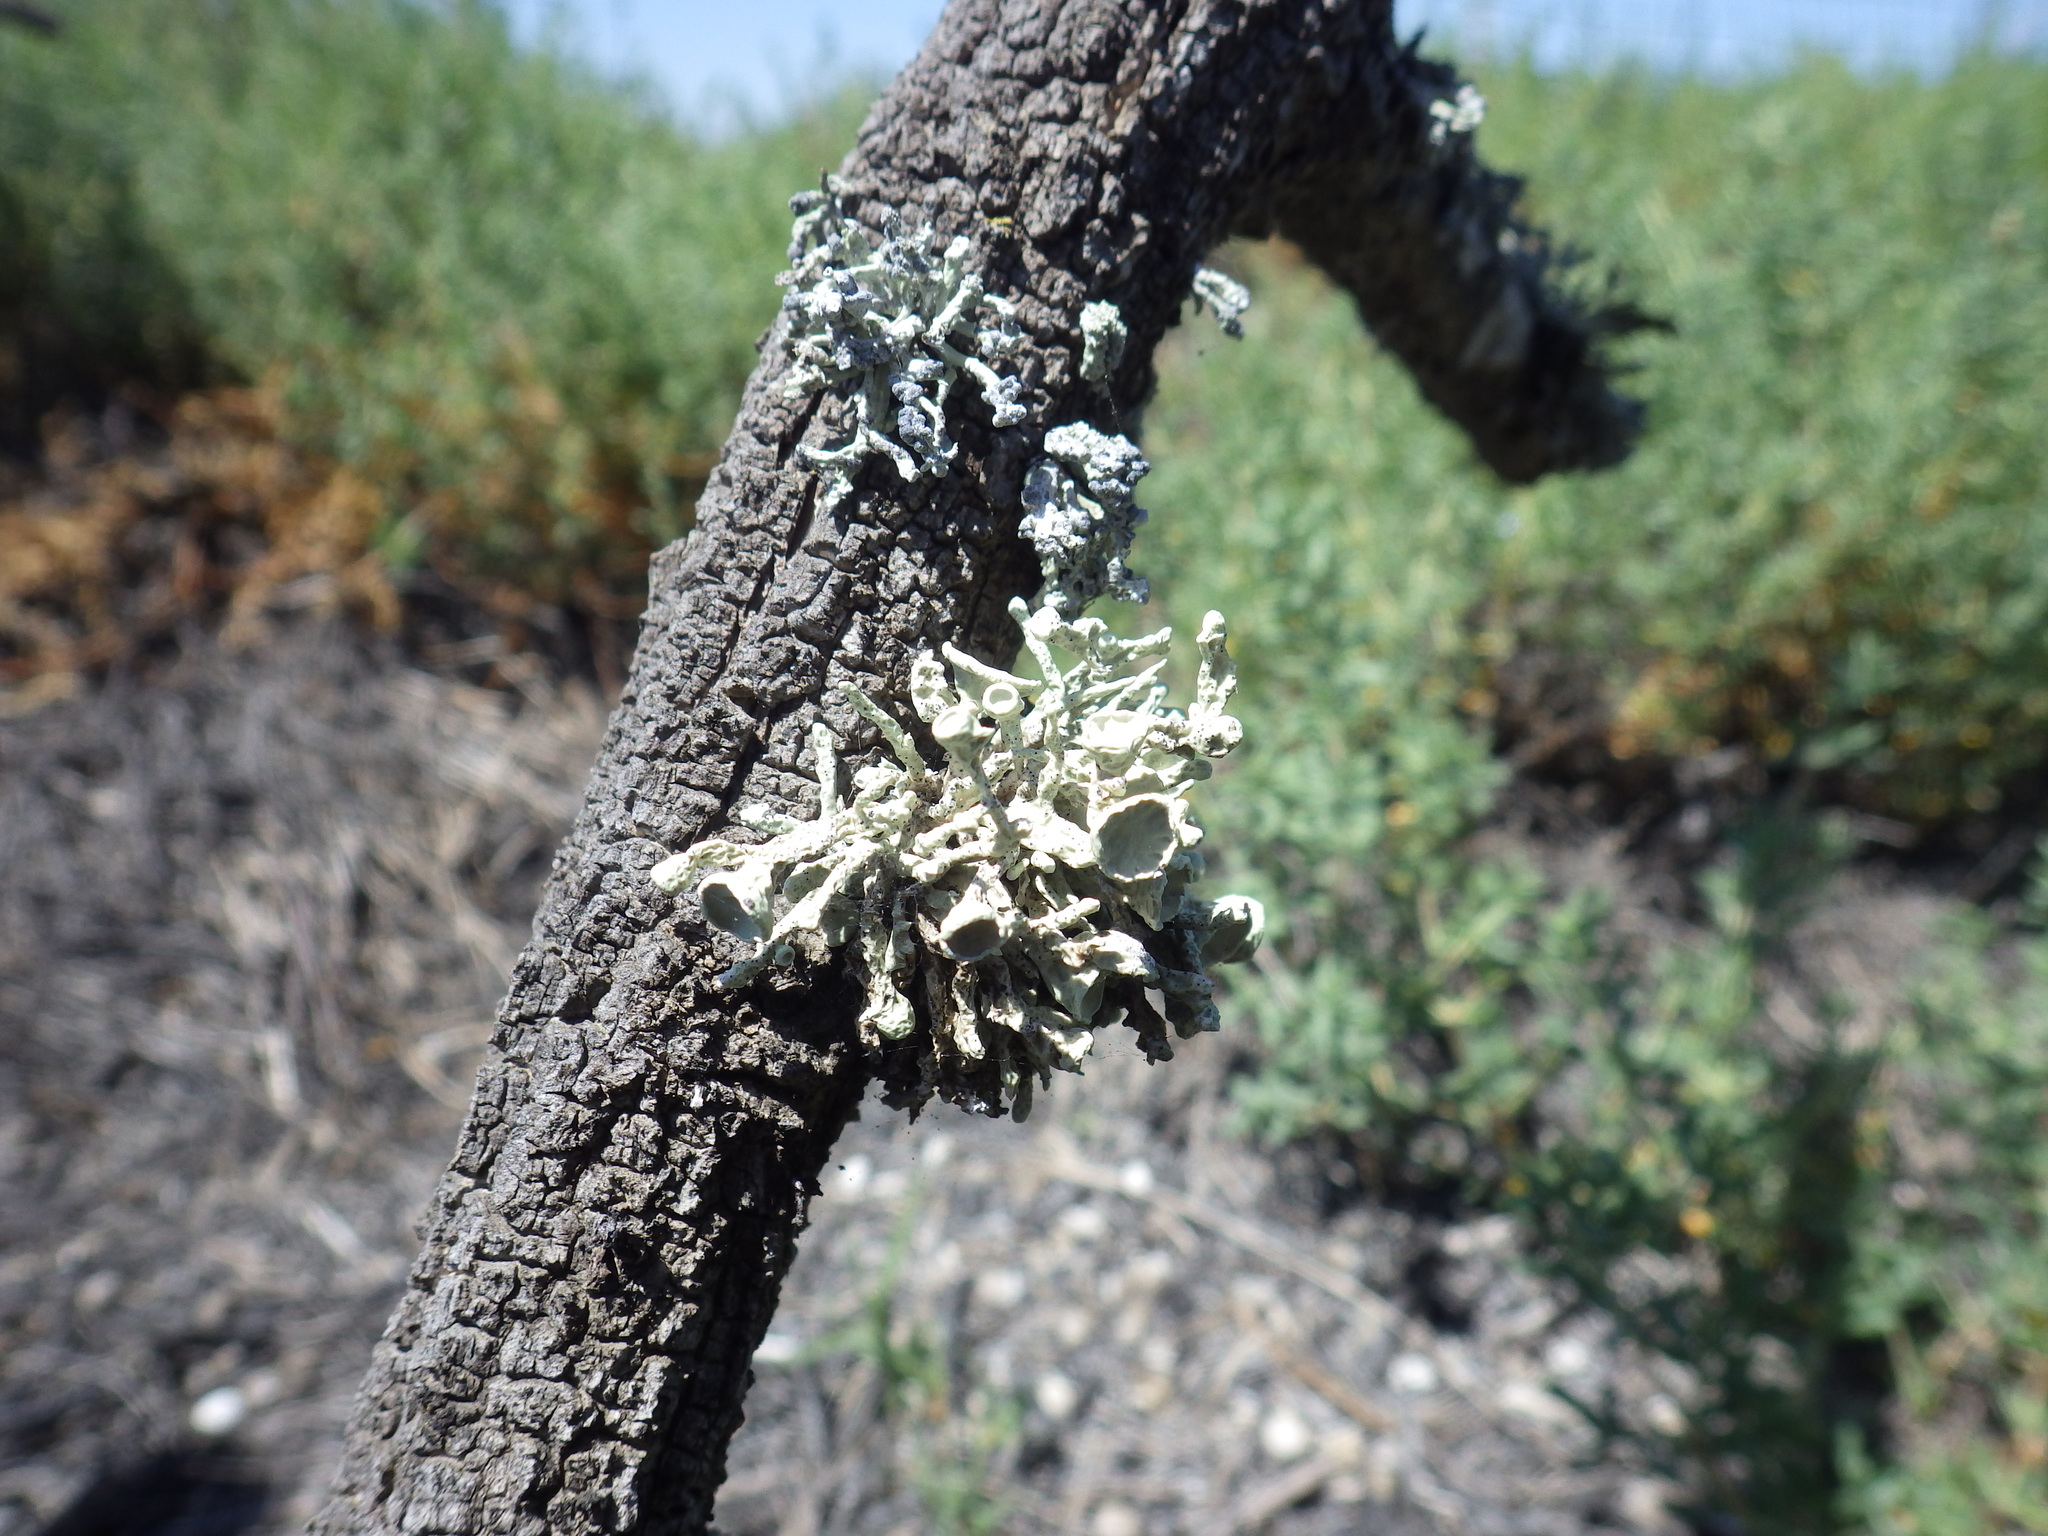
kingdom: Fungi
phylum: Ascomycota
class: Lecanoromycetes
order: Lecanorales
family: Ramalinaceae
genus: Niebla
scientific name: Niebla ceruchis
